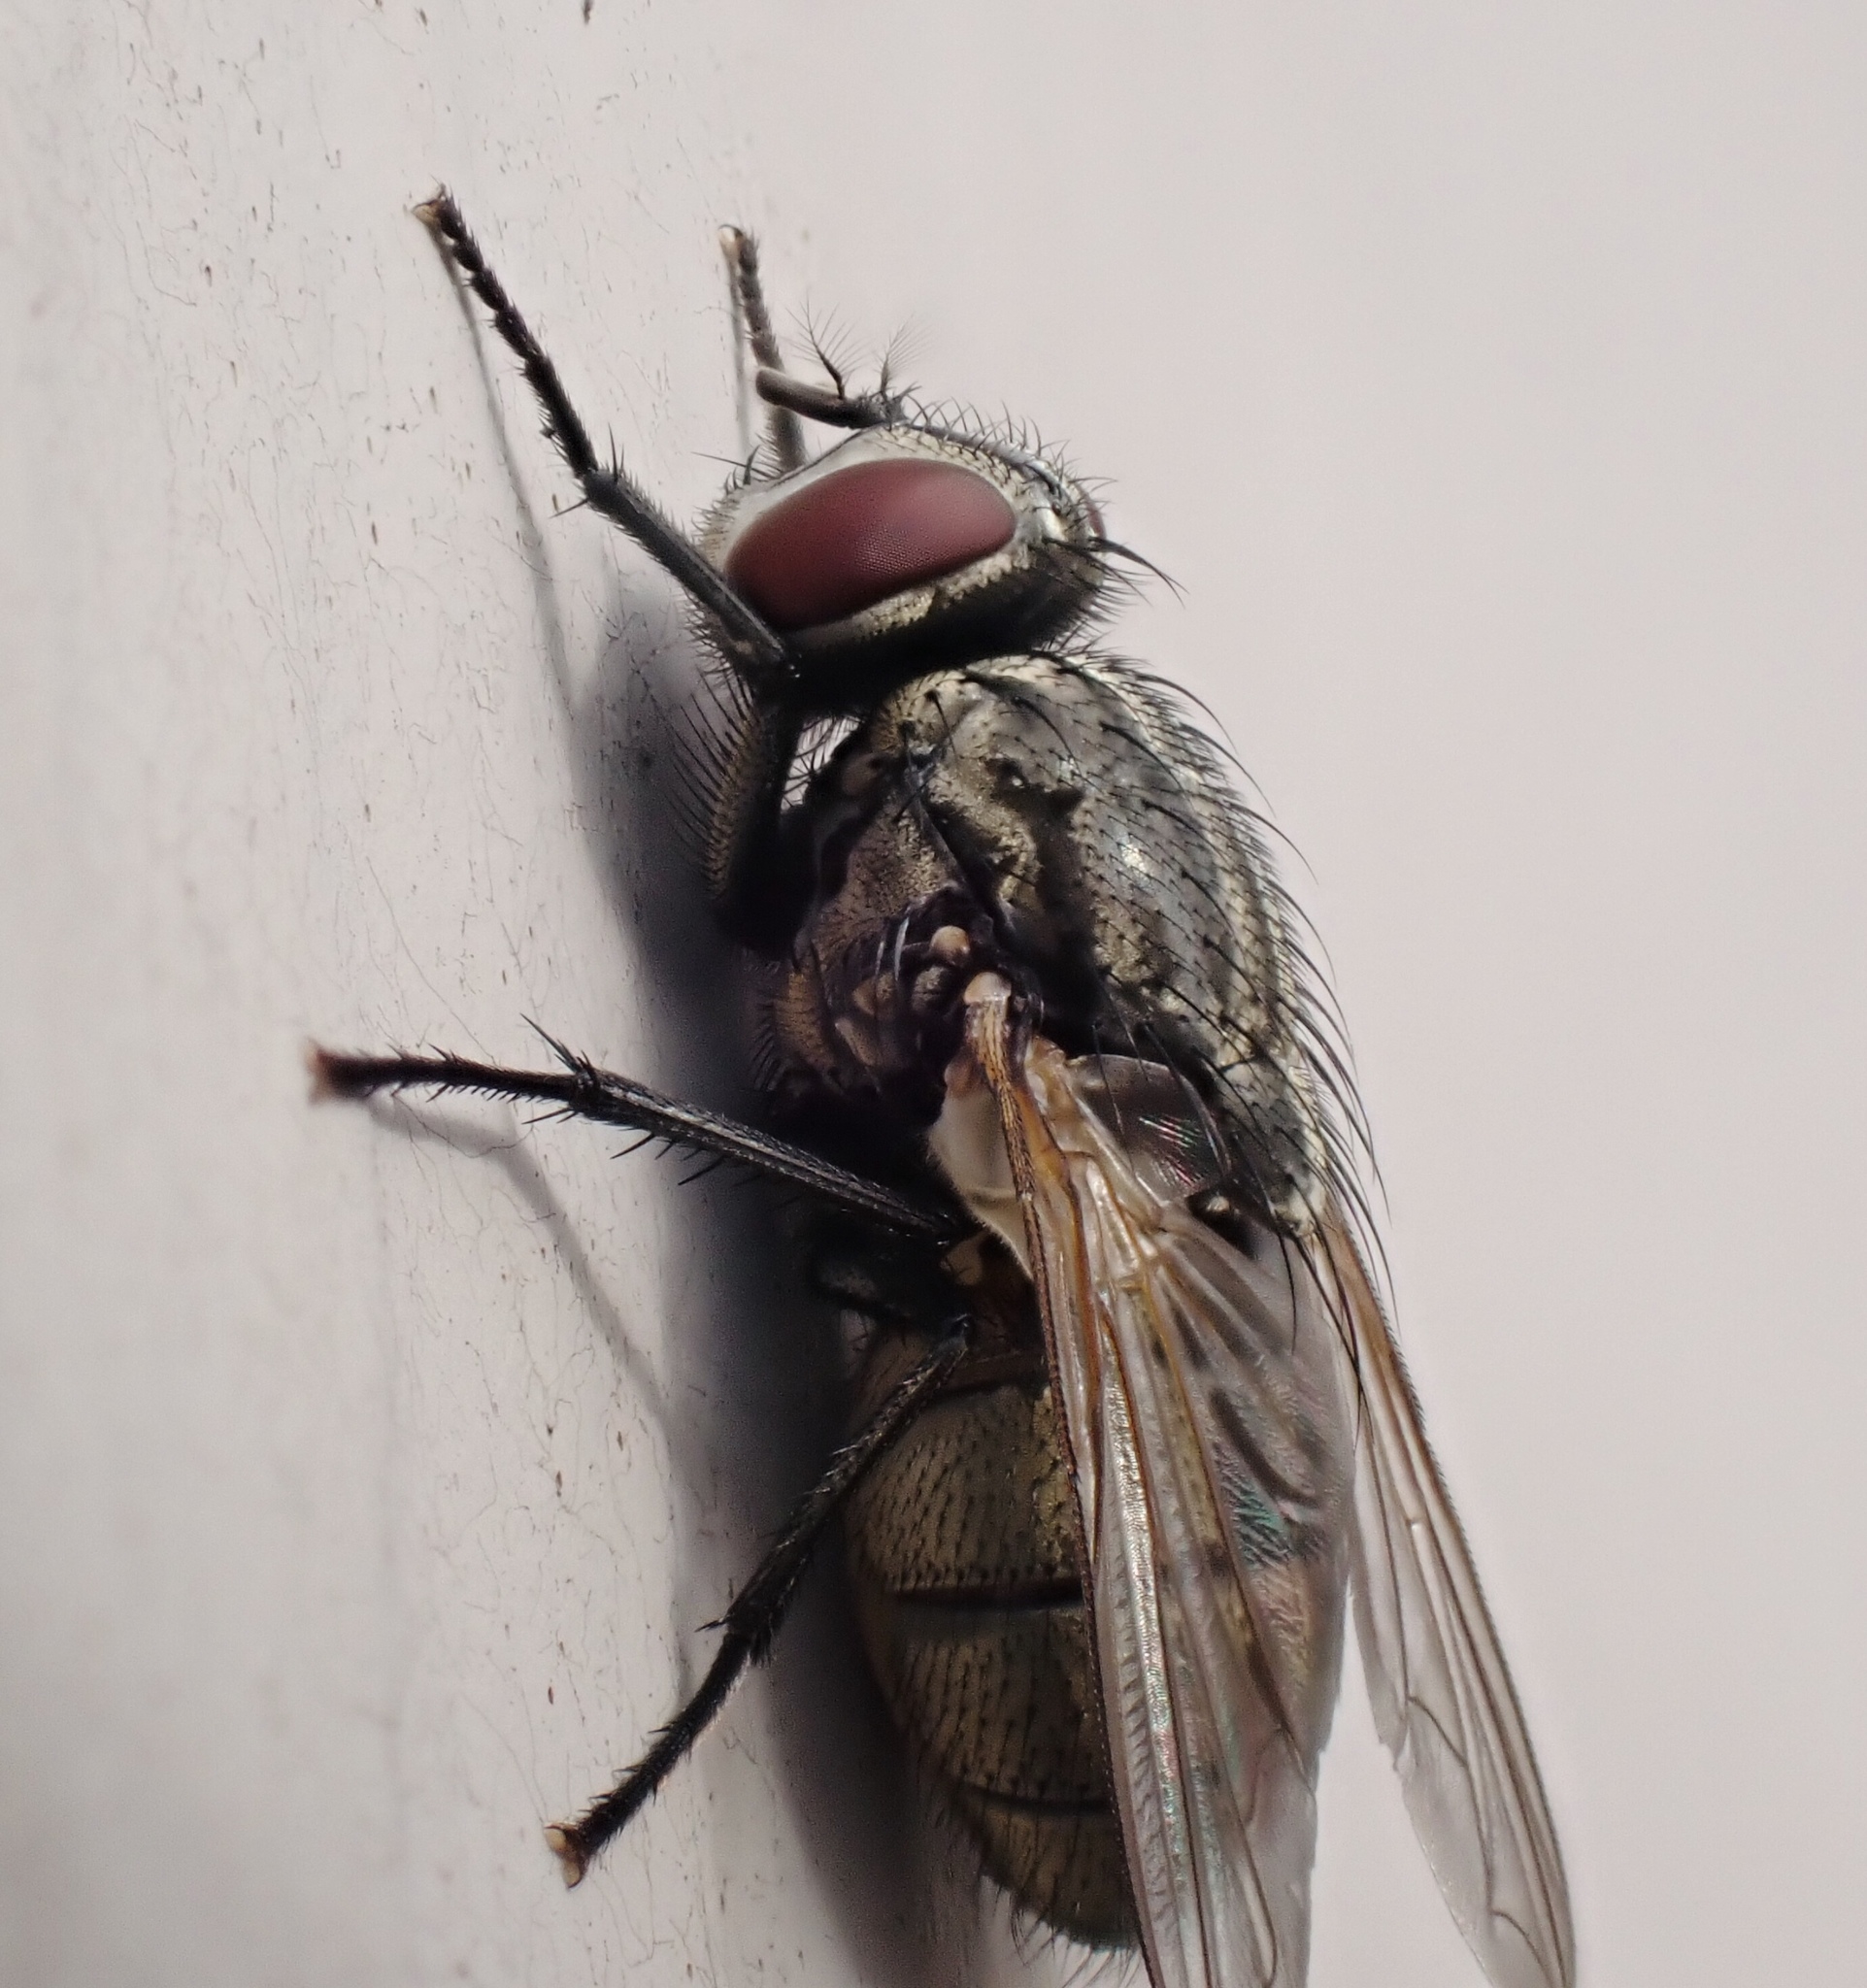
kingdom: Animalia
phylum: Arthropoda
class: Insecta
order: Diptera
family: Muscidae
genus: Musca
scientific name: Musca autumnalis
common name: Face fly
